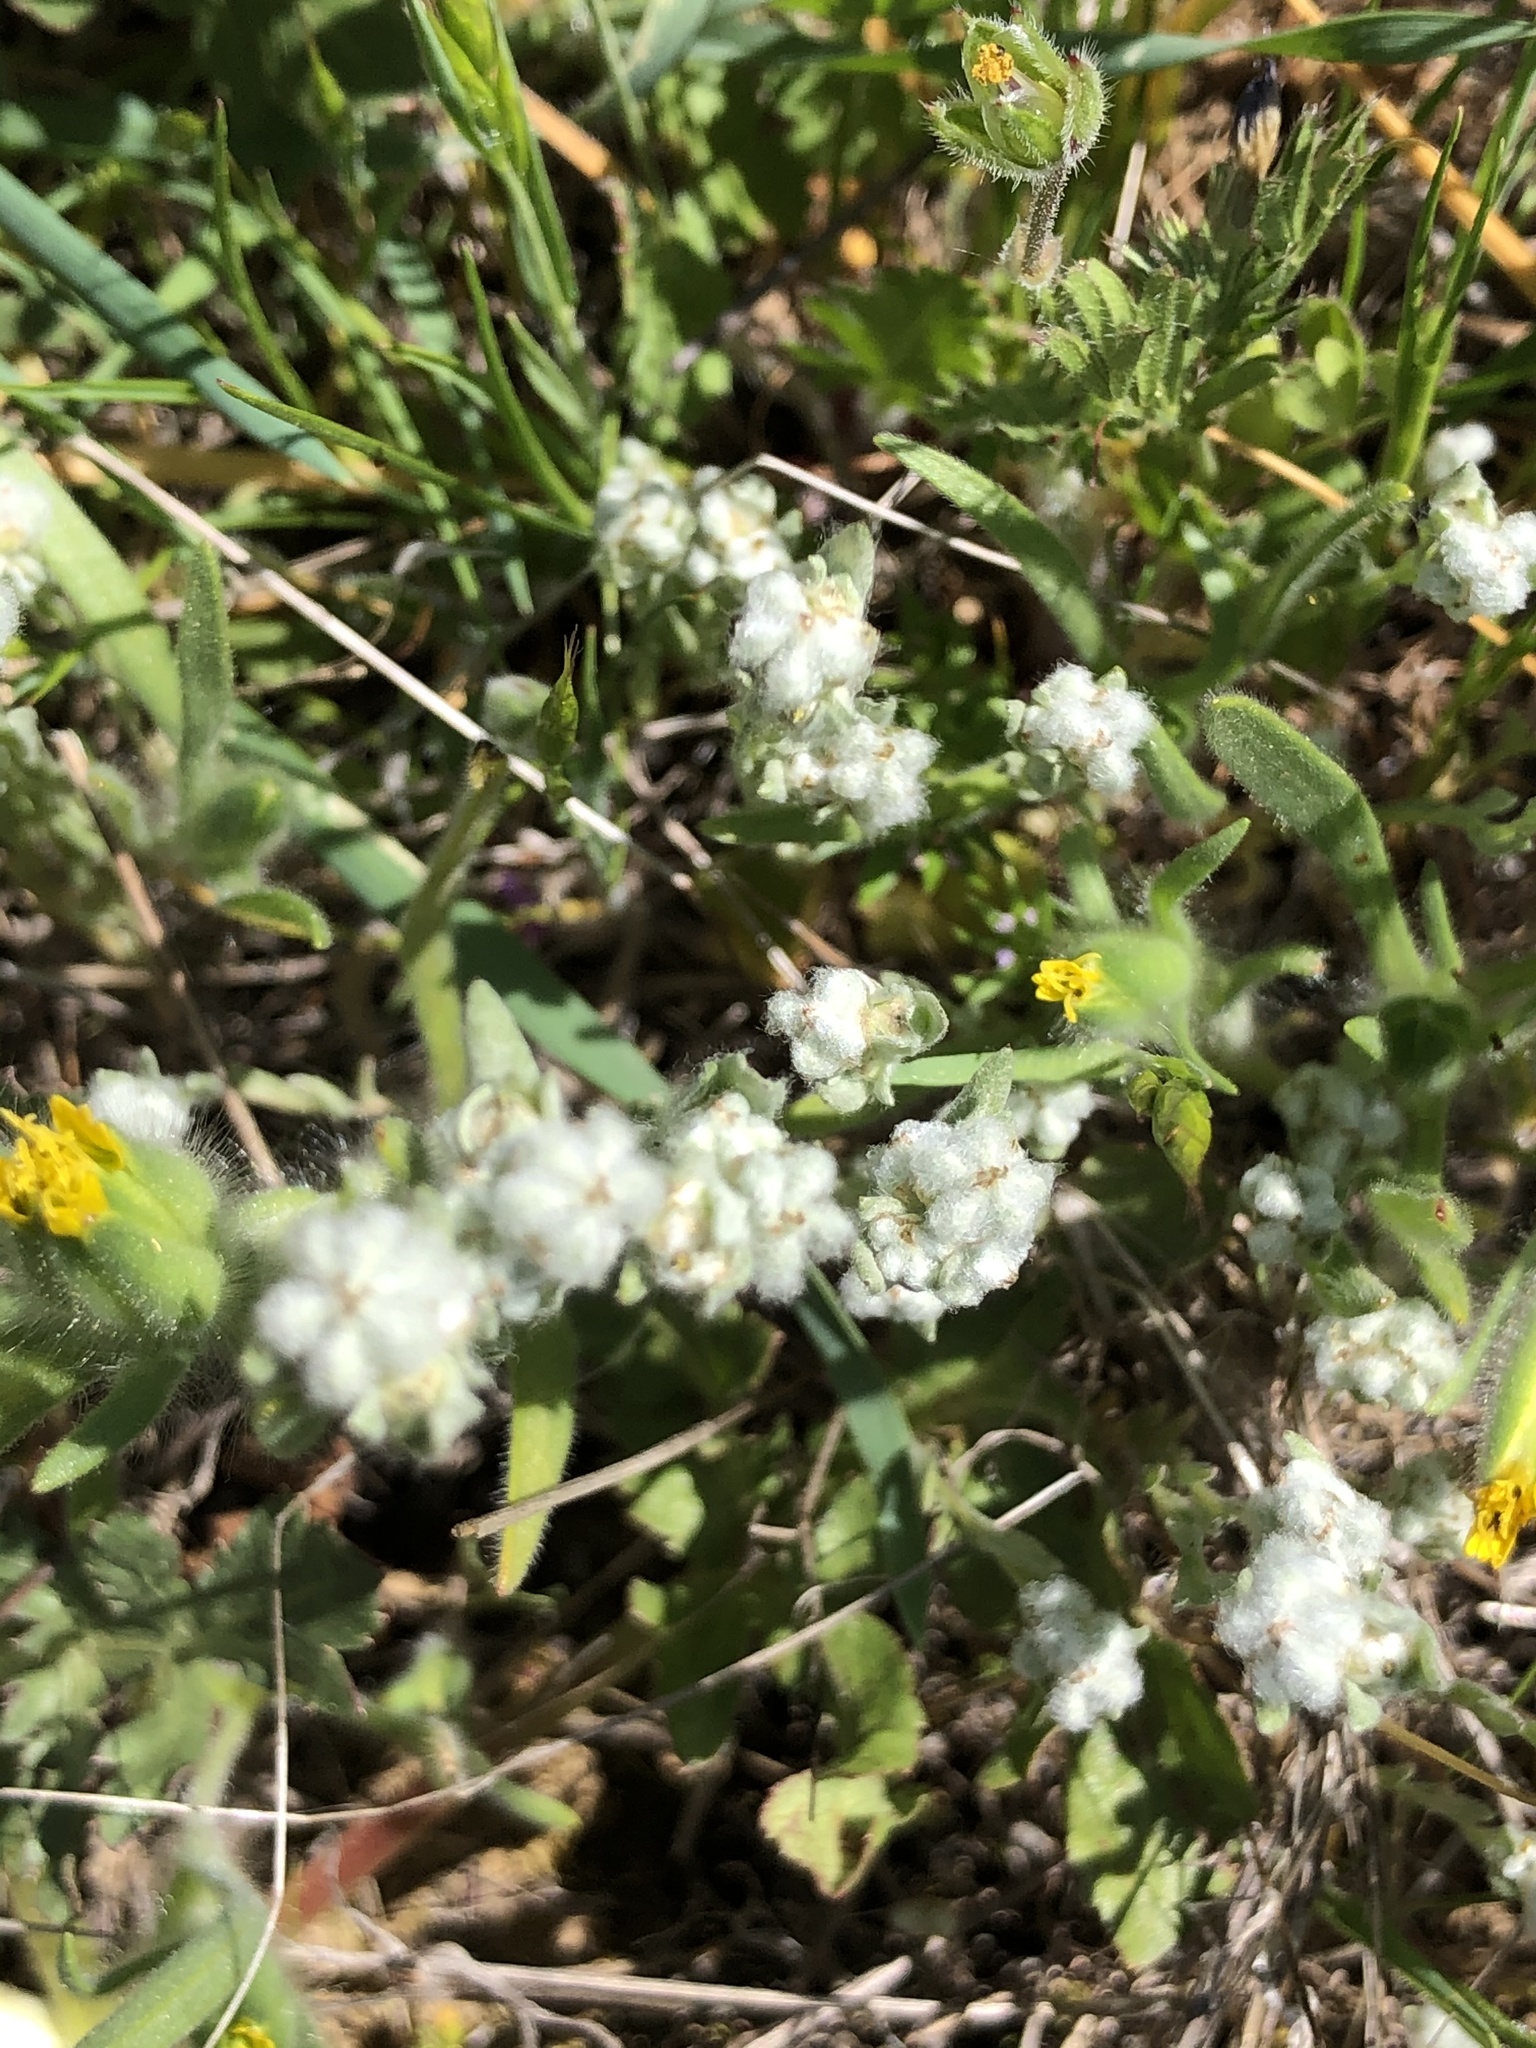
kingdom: Plantae
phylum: Tracheophyta
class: Magnoliopsida
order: Asterales
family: Asteraceae
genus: Bombycilaena
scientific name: Bombycilaena californica
